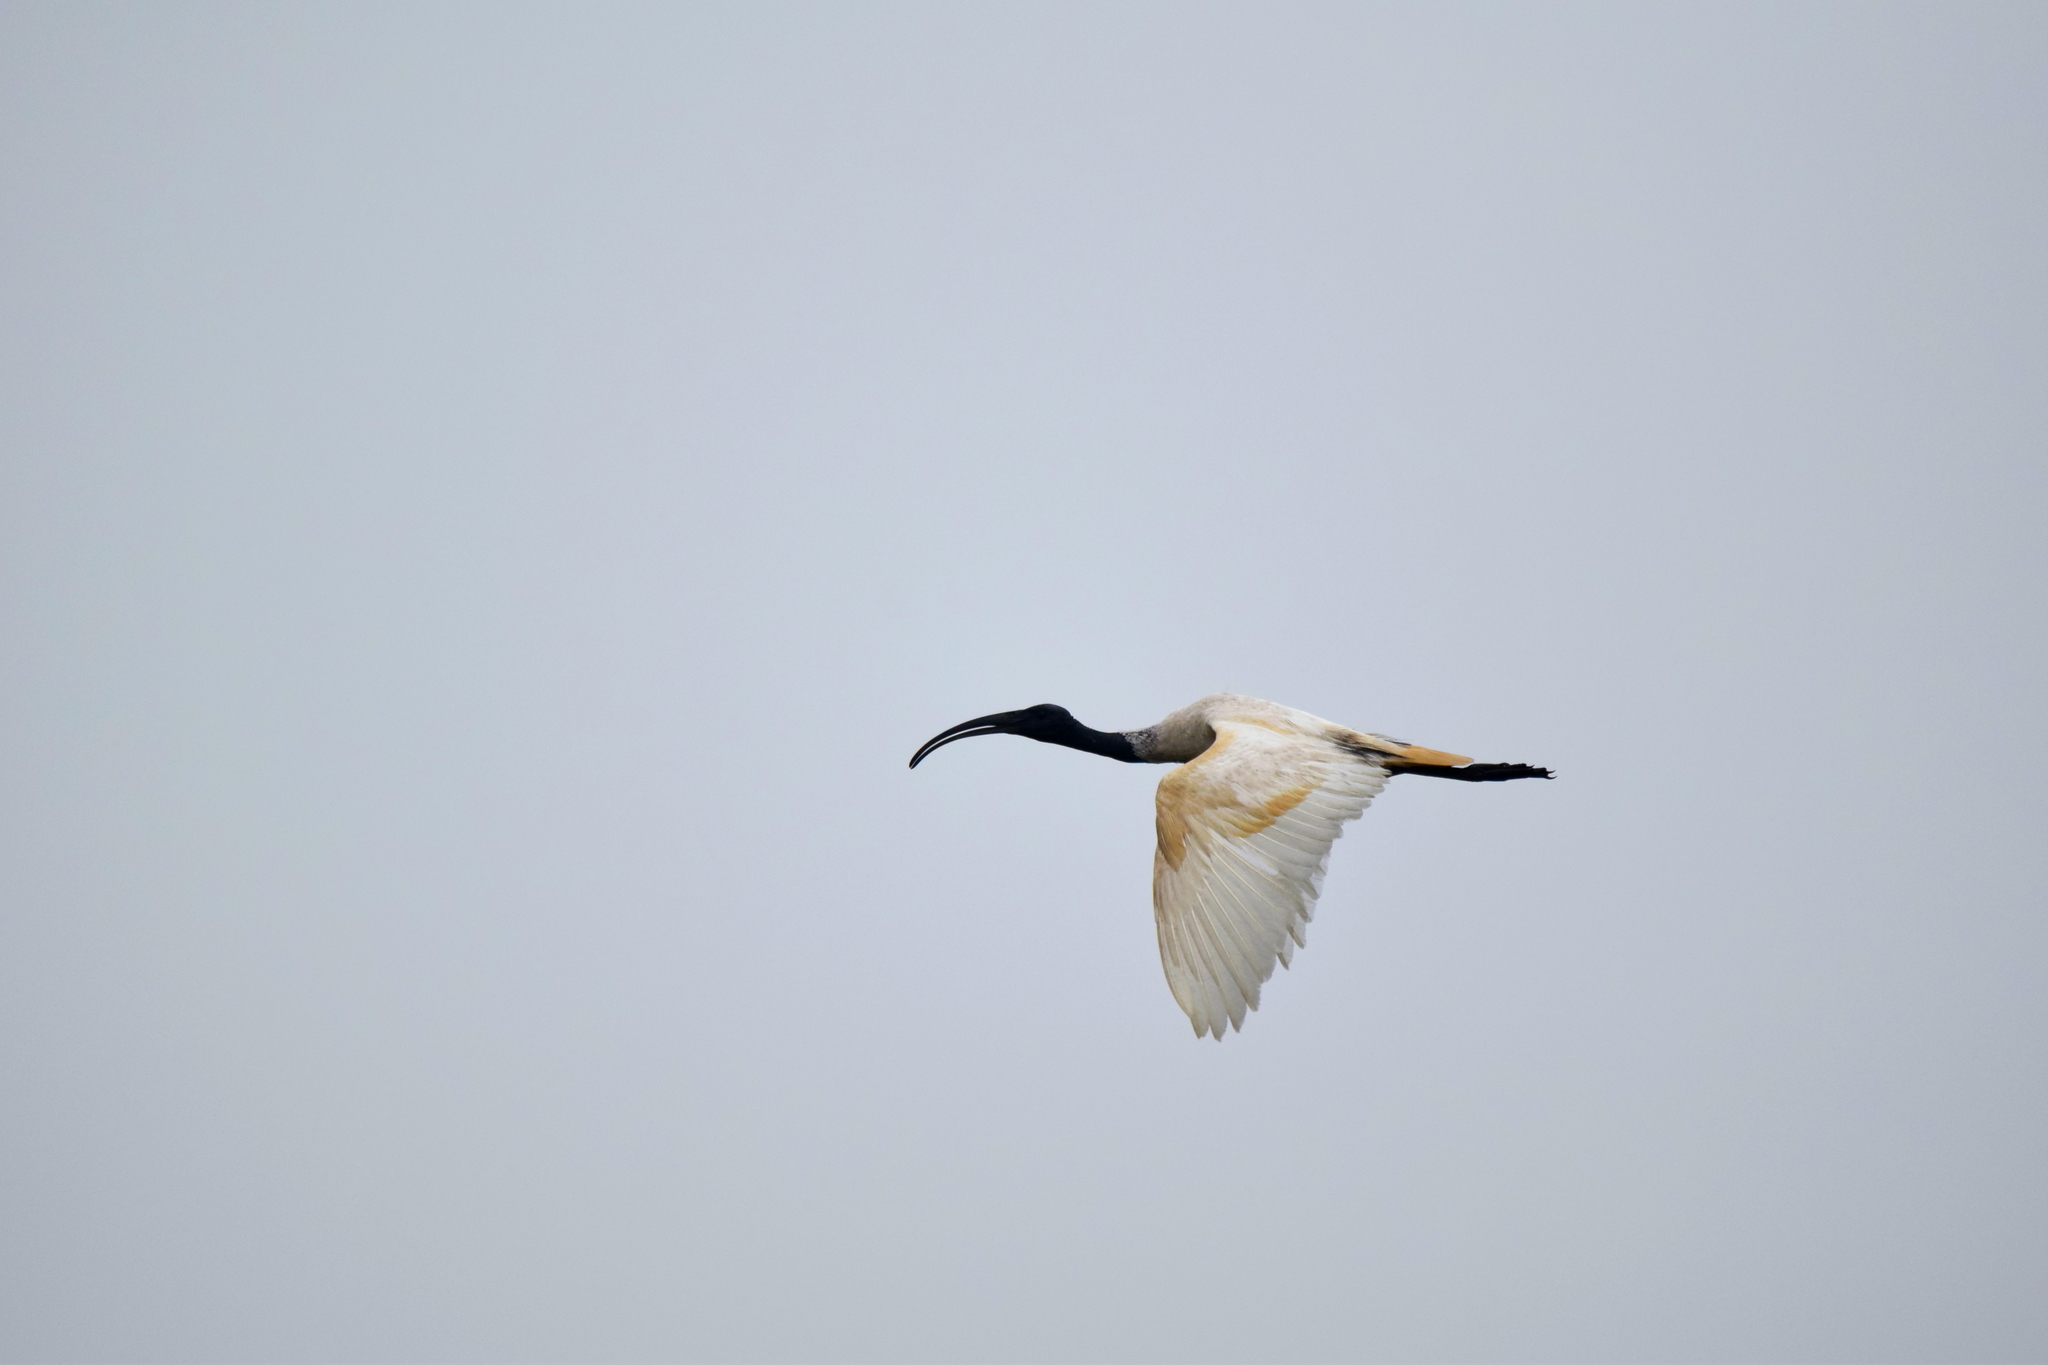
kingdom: Animalia
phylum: Chordata
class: Aves
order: Pelecaniformes
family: Threskiornithidae
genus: Threskiornis
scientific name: Threskiornis melanocephalus
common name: Black-headed ibis
